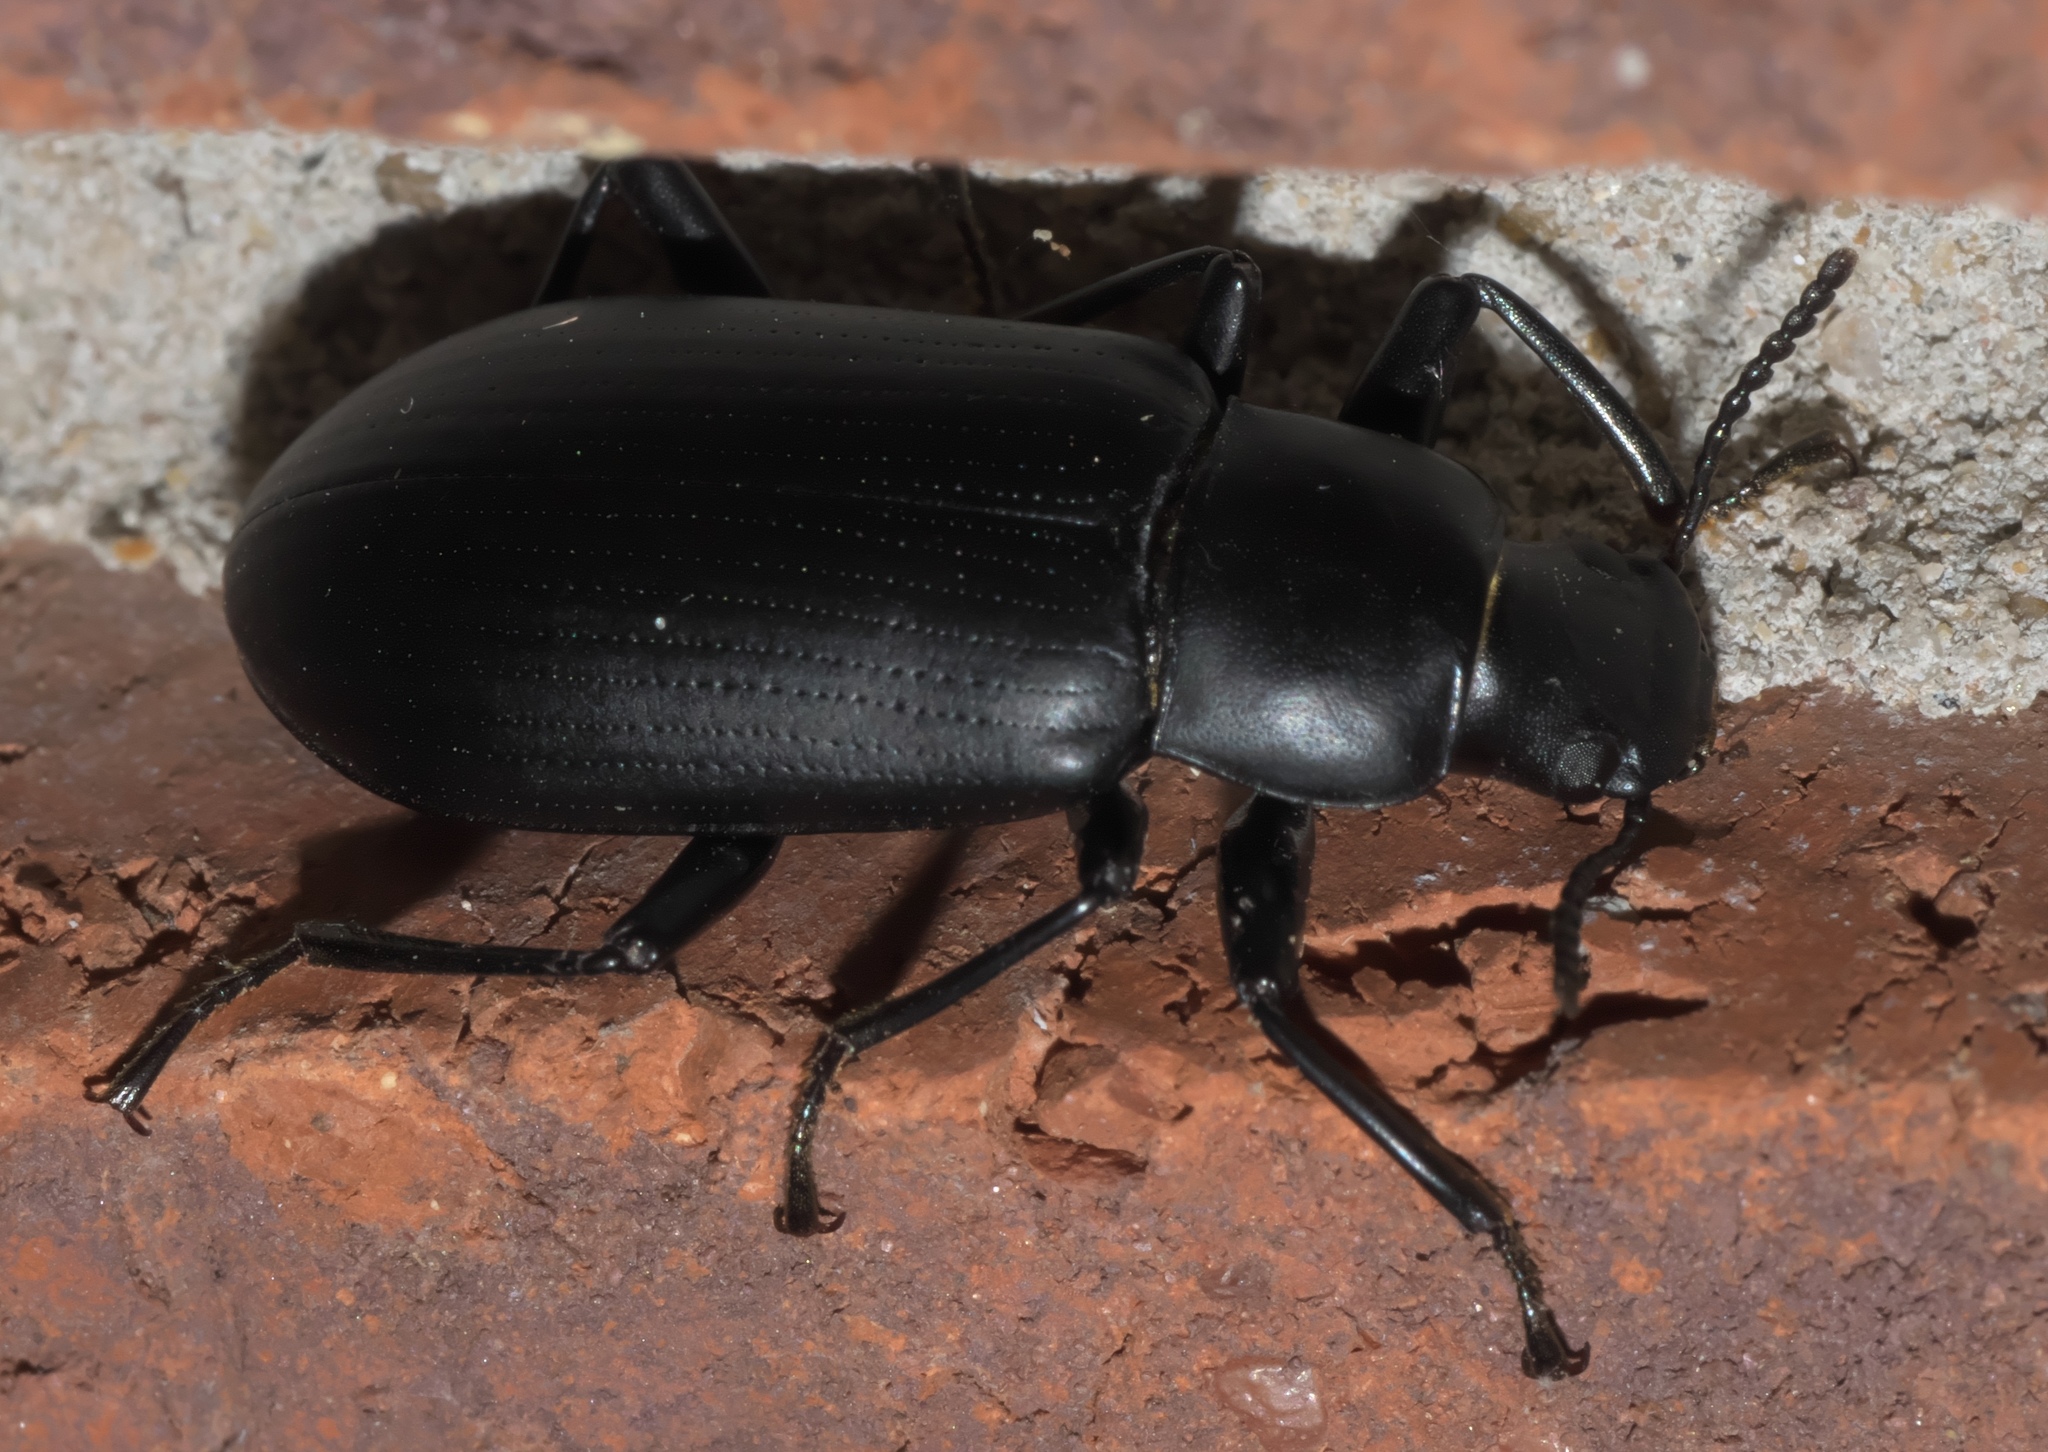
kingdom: Animalia
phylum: Arthropoda
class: Insecta
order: Coleoptera
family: Tenebrionidae
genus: Alobates
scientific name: Alobates pensylvanicus
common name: False mealworm beetle
